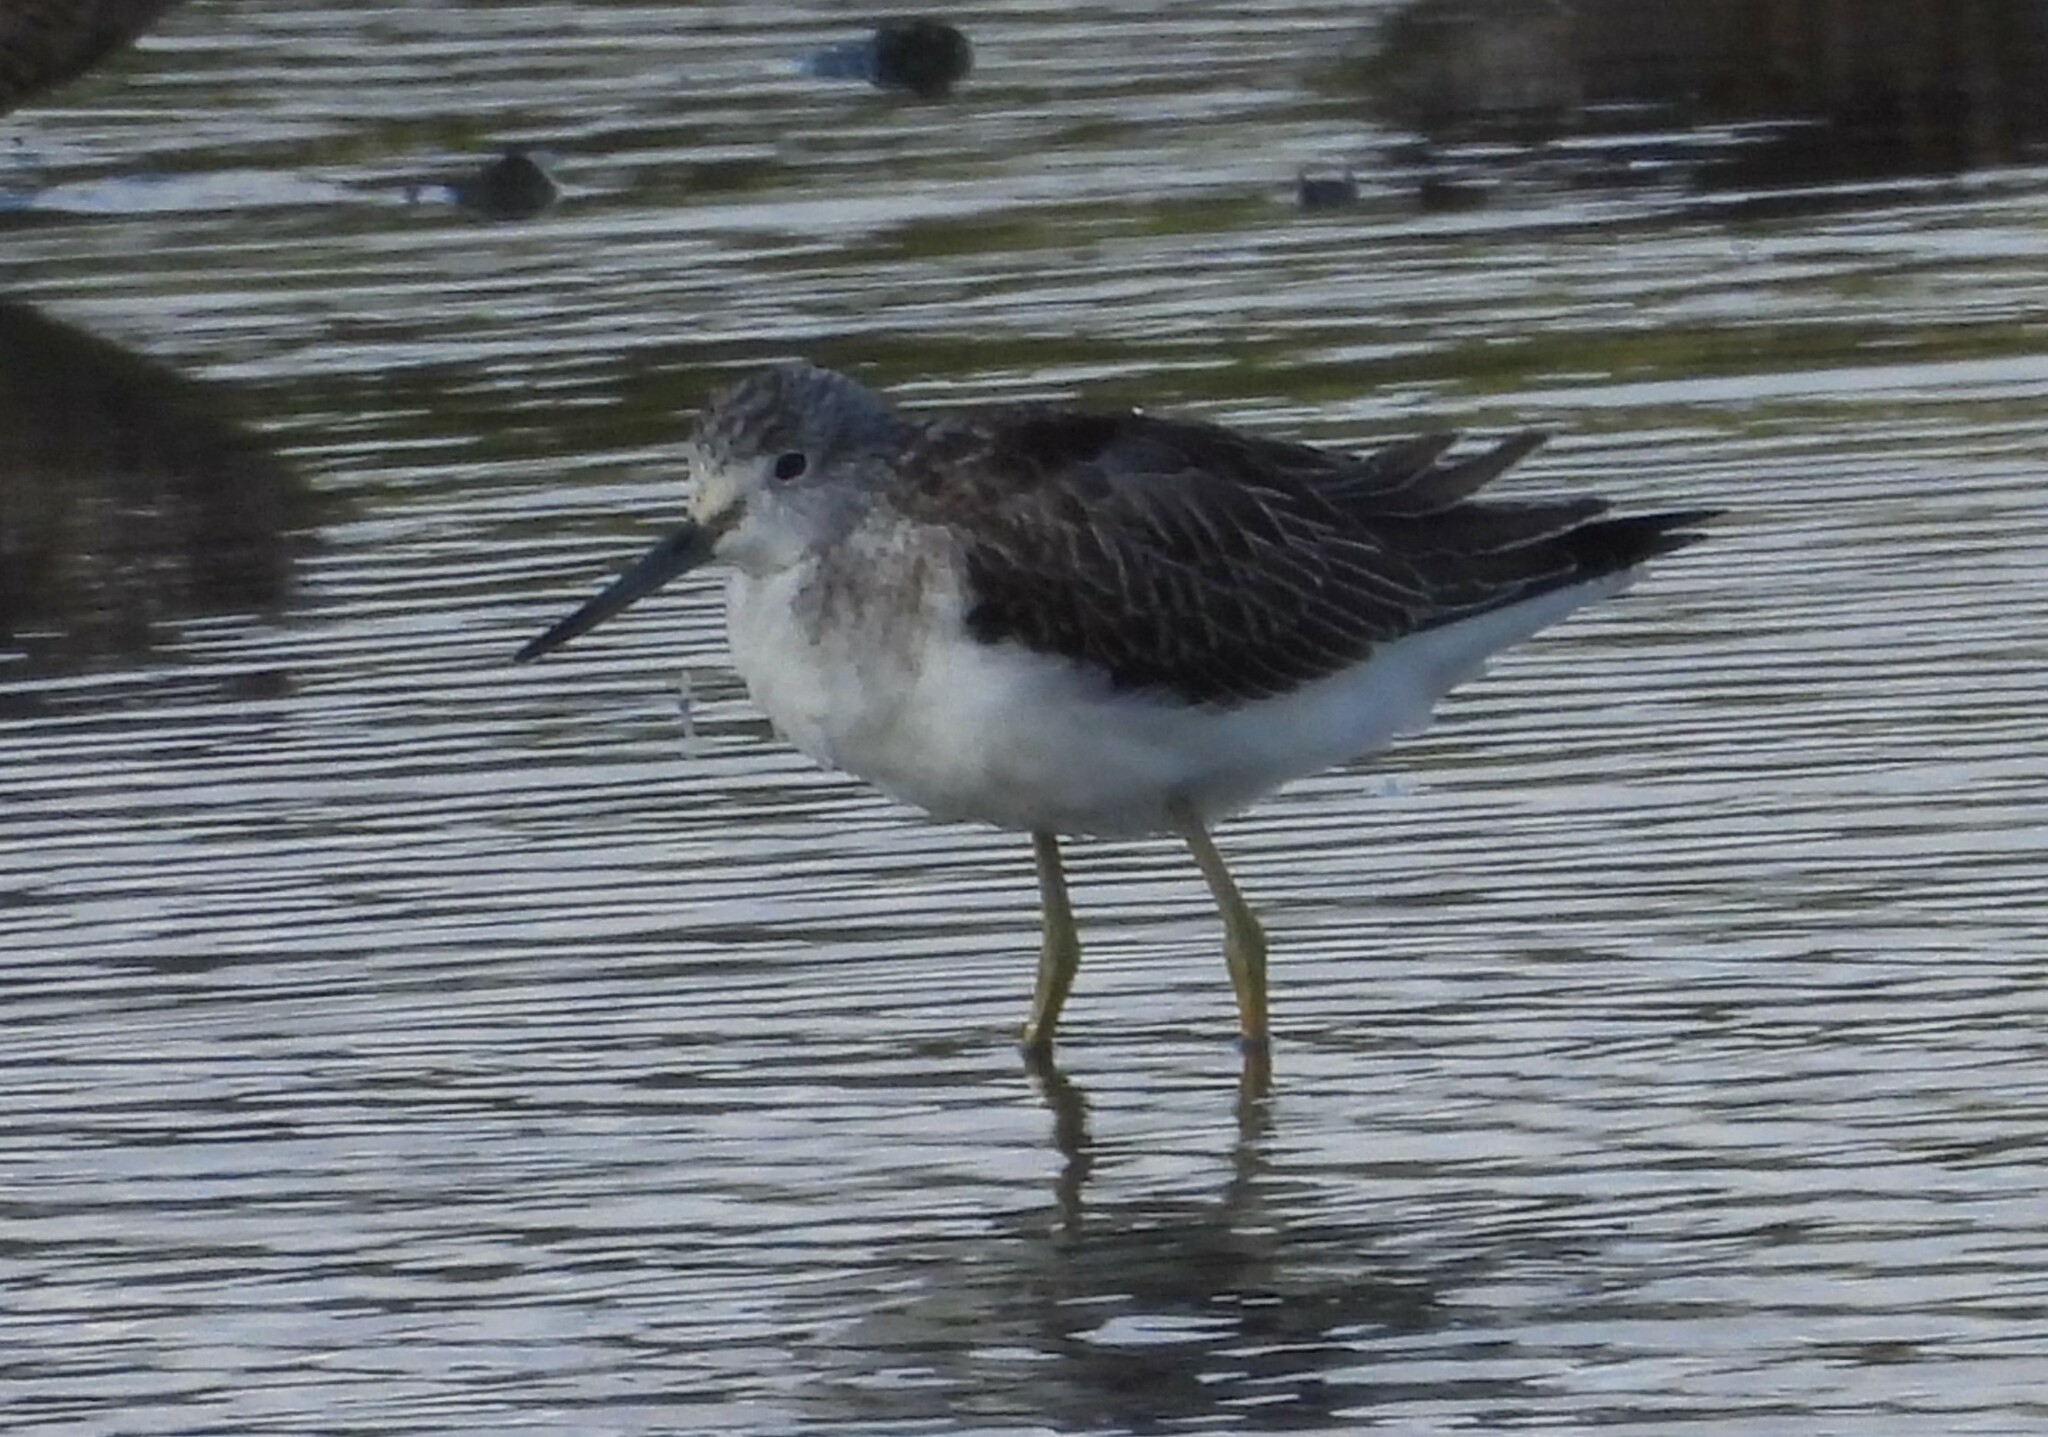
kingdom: Animalia
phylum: Chordata
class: Aves
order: Charadriiformes
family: Scolopacidae
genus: Tringa
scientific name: Tringa nebularia
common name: Common greenshank
